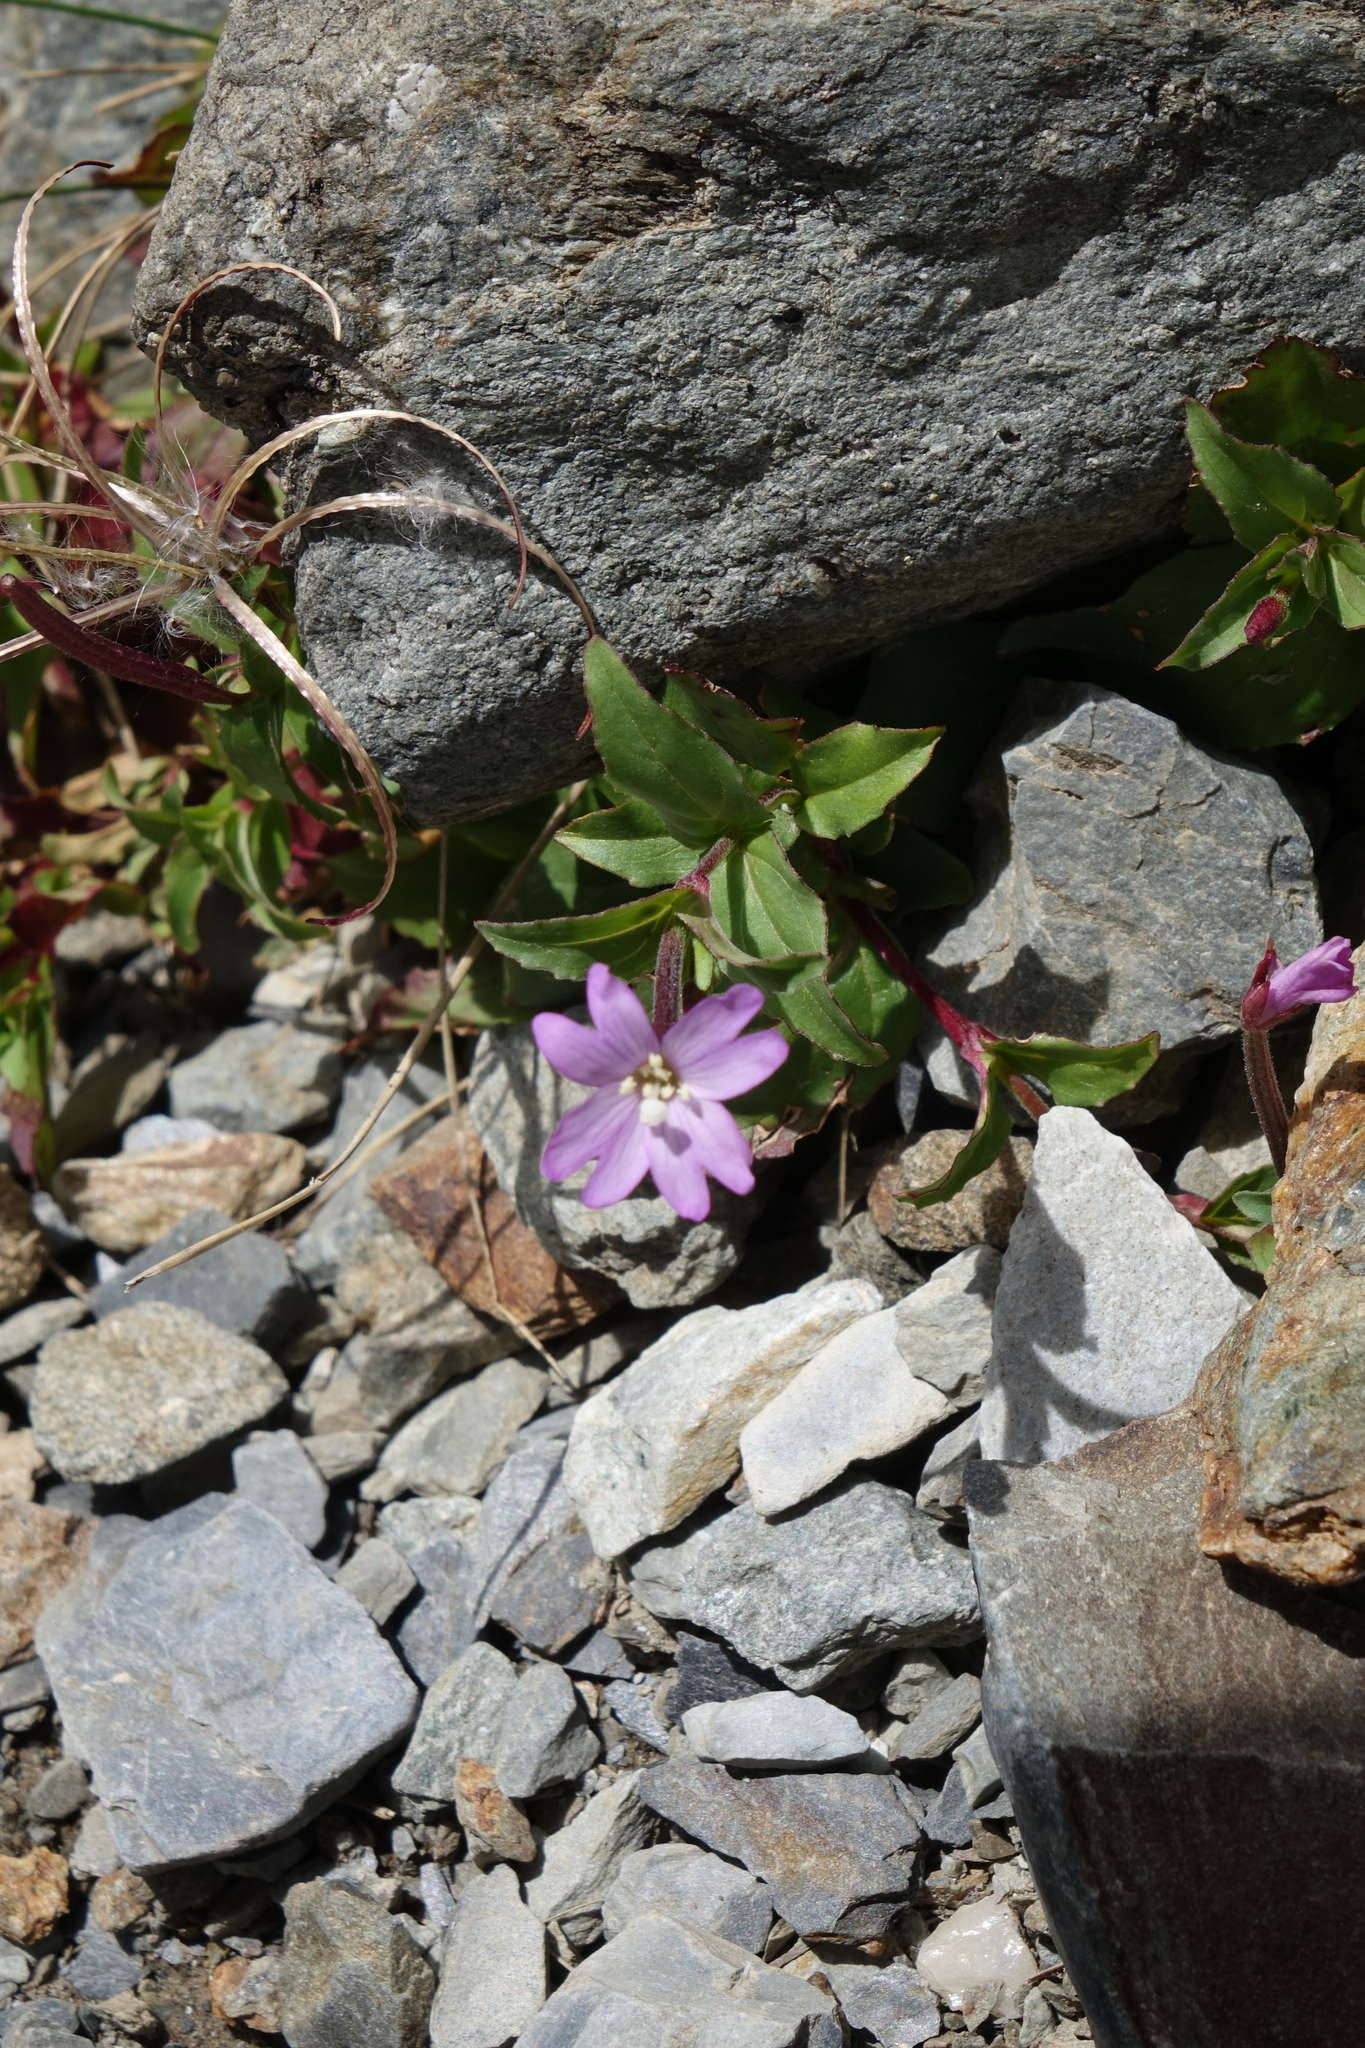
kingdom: Plantae
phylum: Tracheophyta
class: Magnoliopsida
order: Myrtales
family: Onagraceae
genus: Epilobium
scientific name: Epilobium algidum
